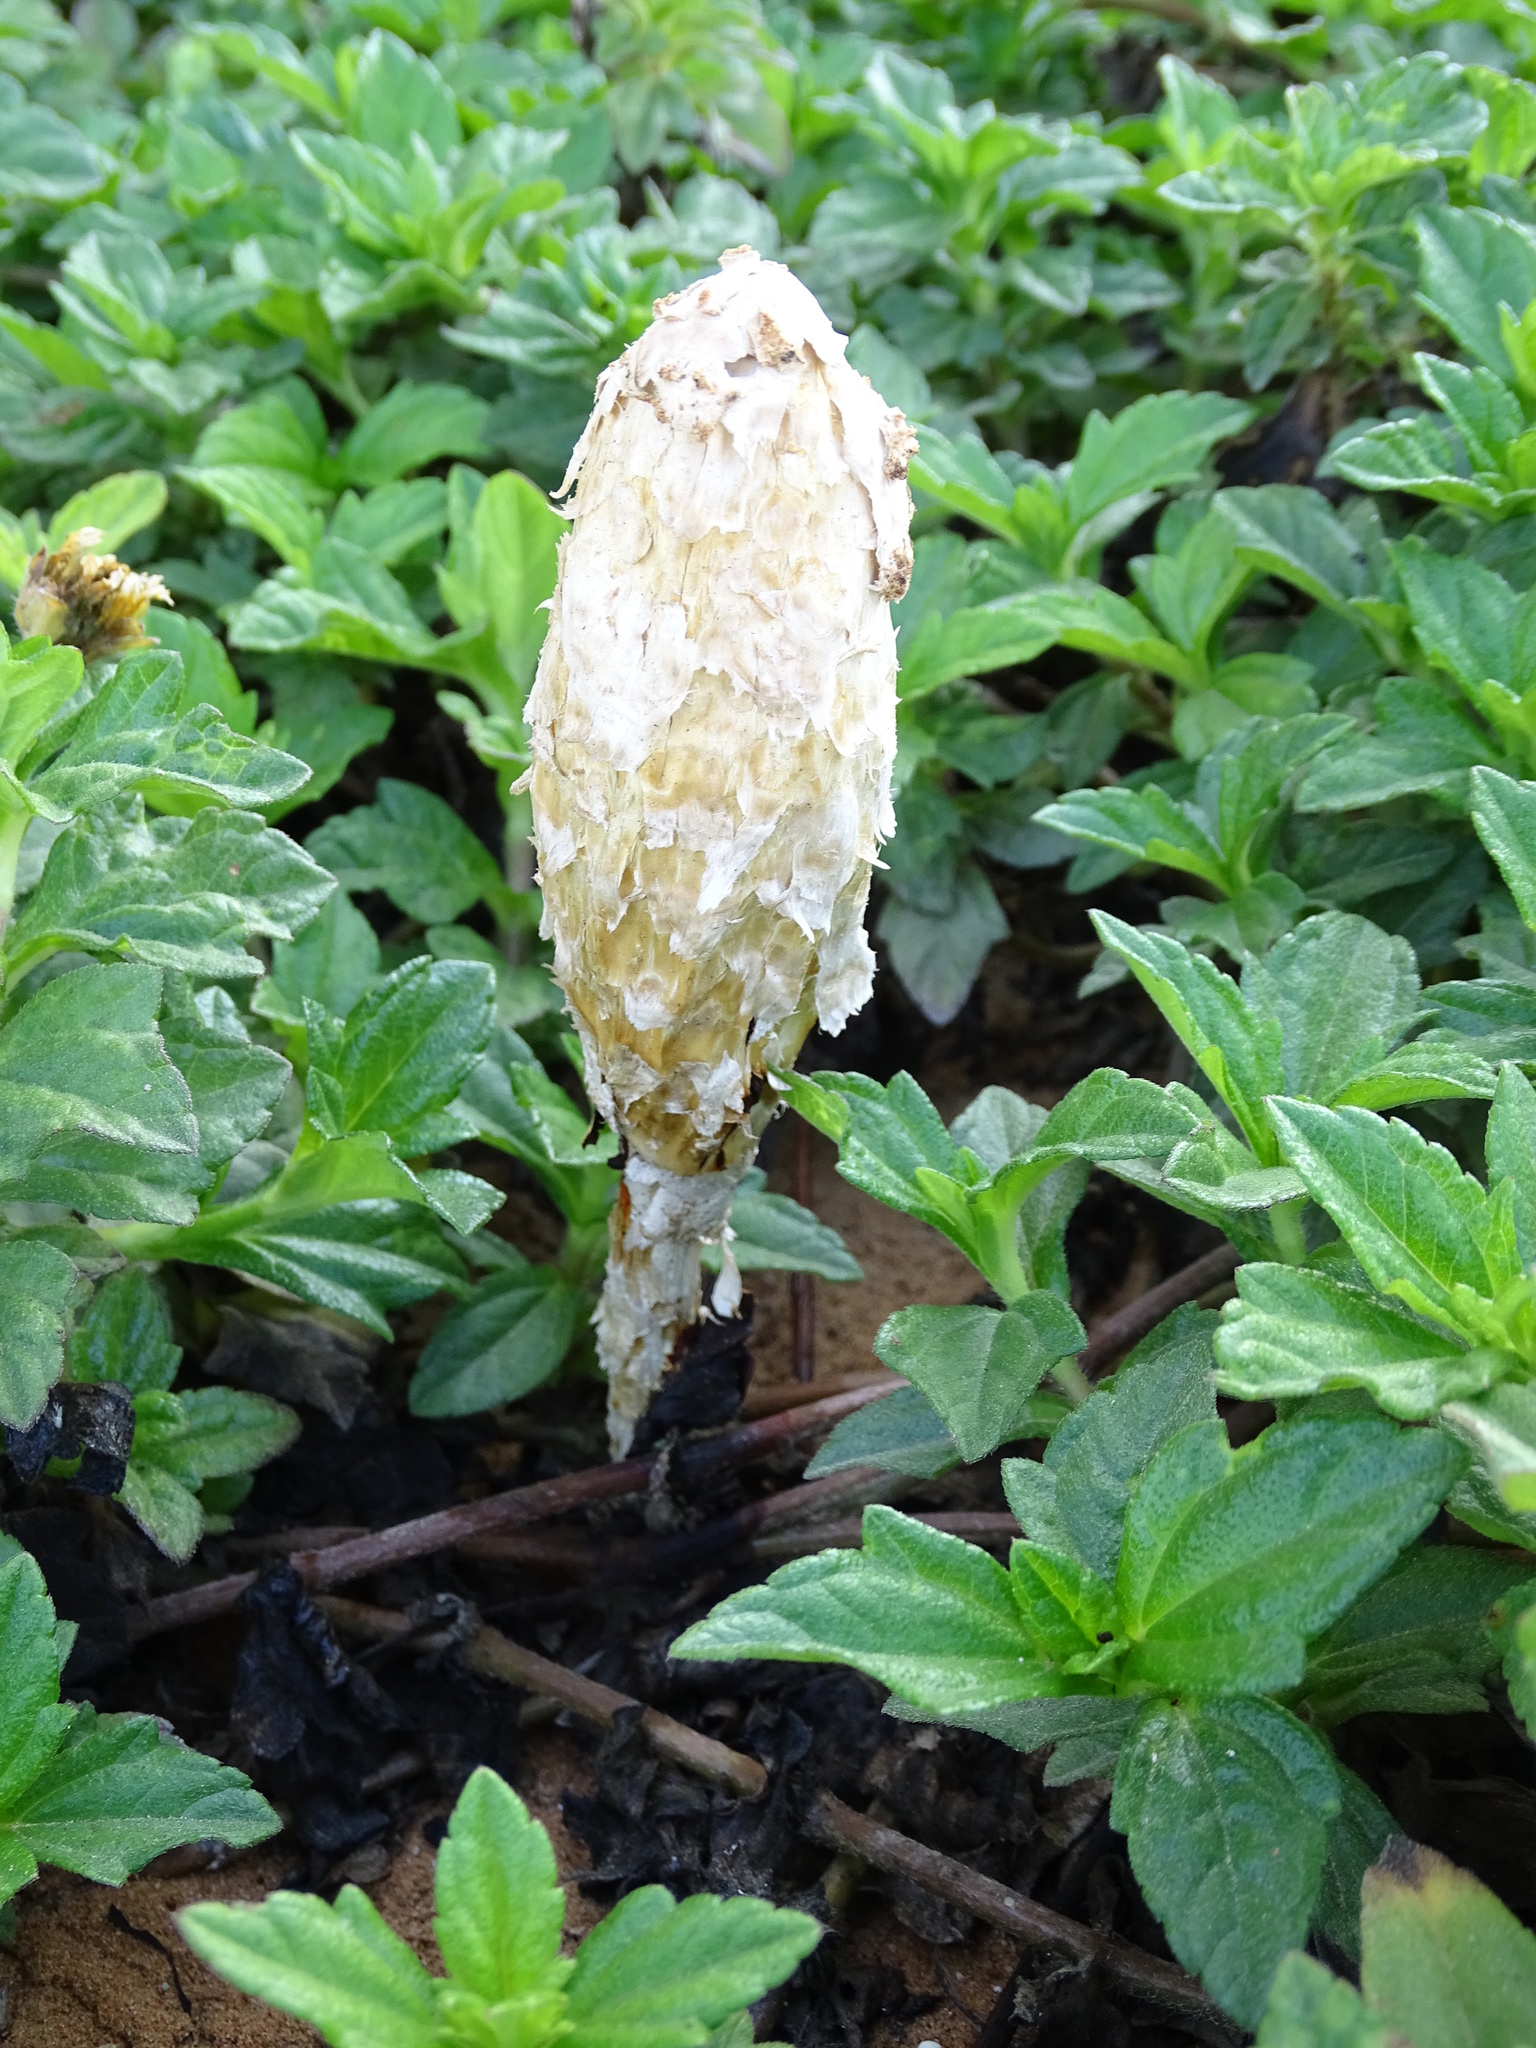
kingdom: Fungi
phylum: Basidiomycota
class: Agaricomycetes
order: Agaricales
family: Agaricaceae
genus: Podaxis
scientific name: Podaxis pistillaris
